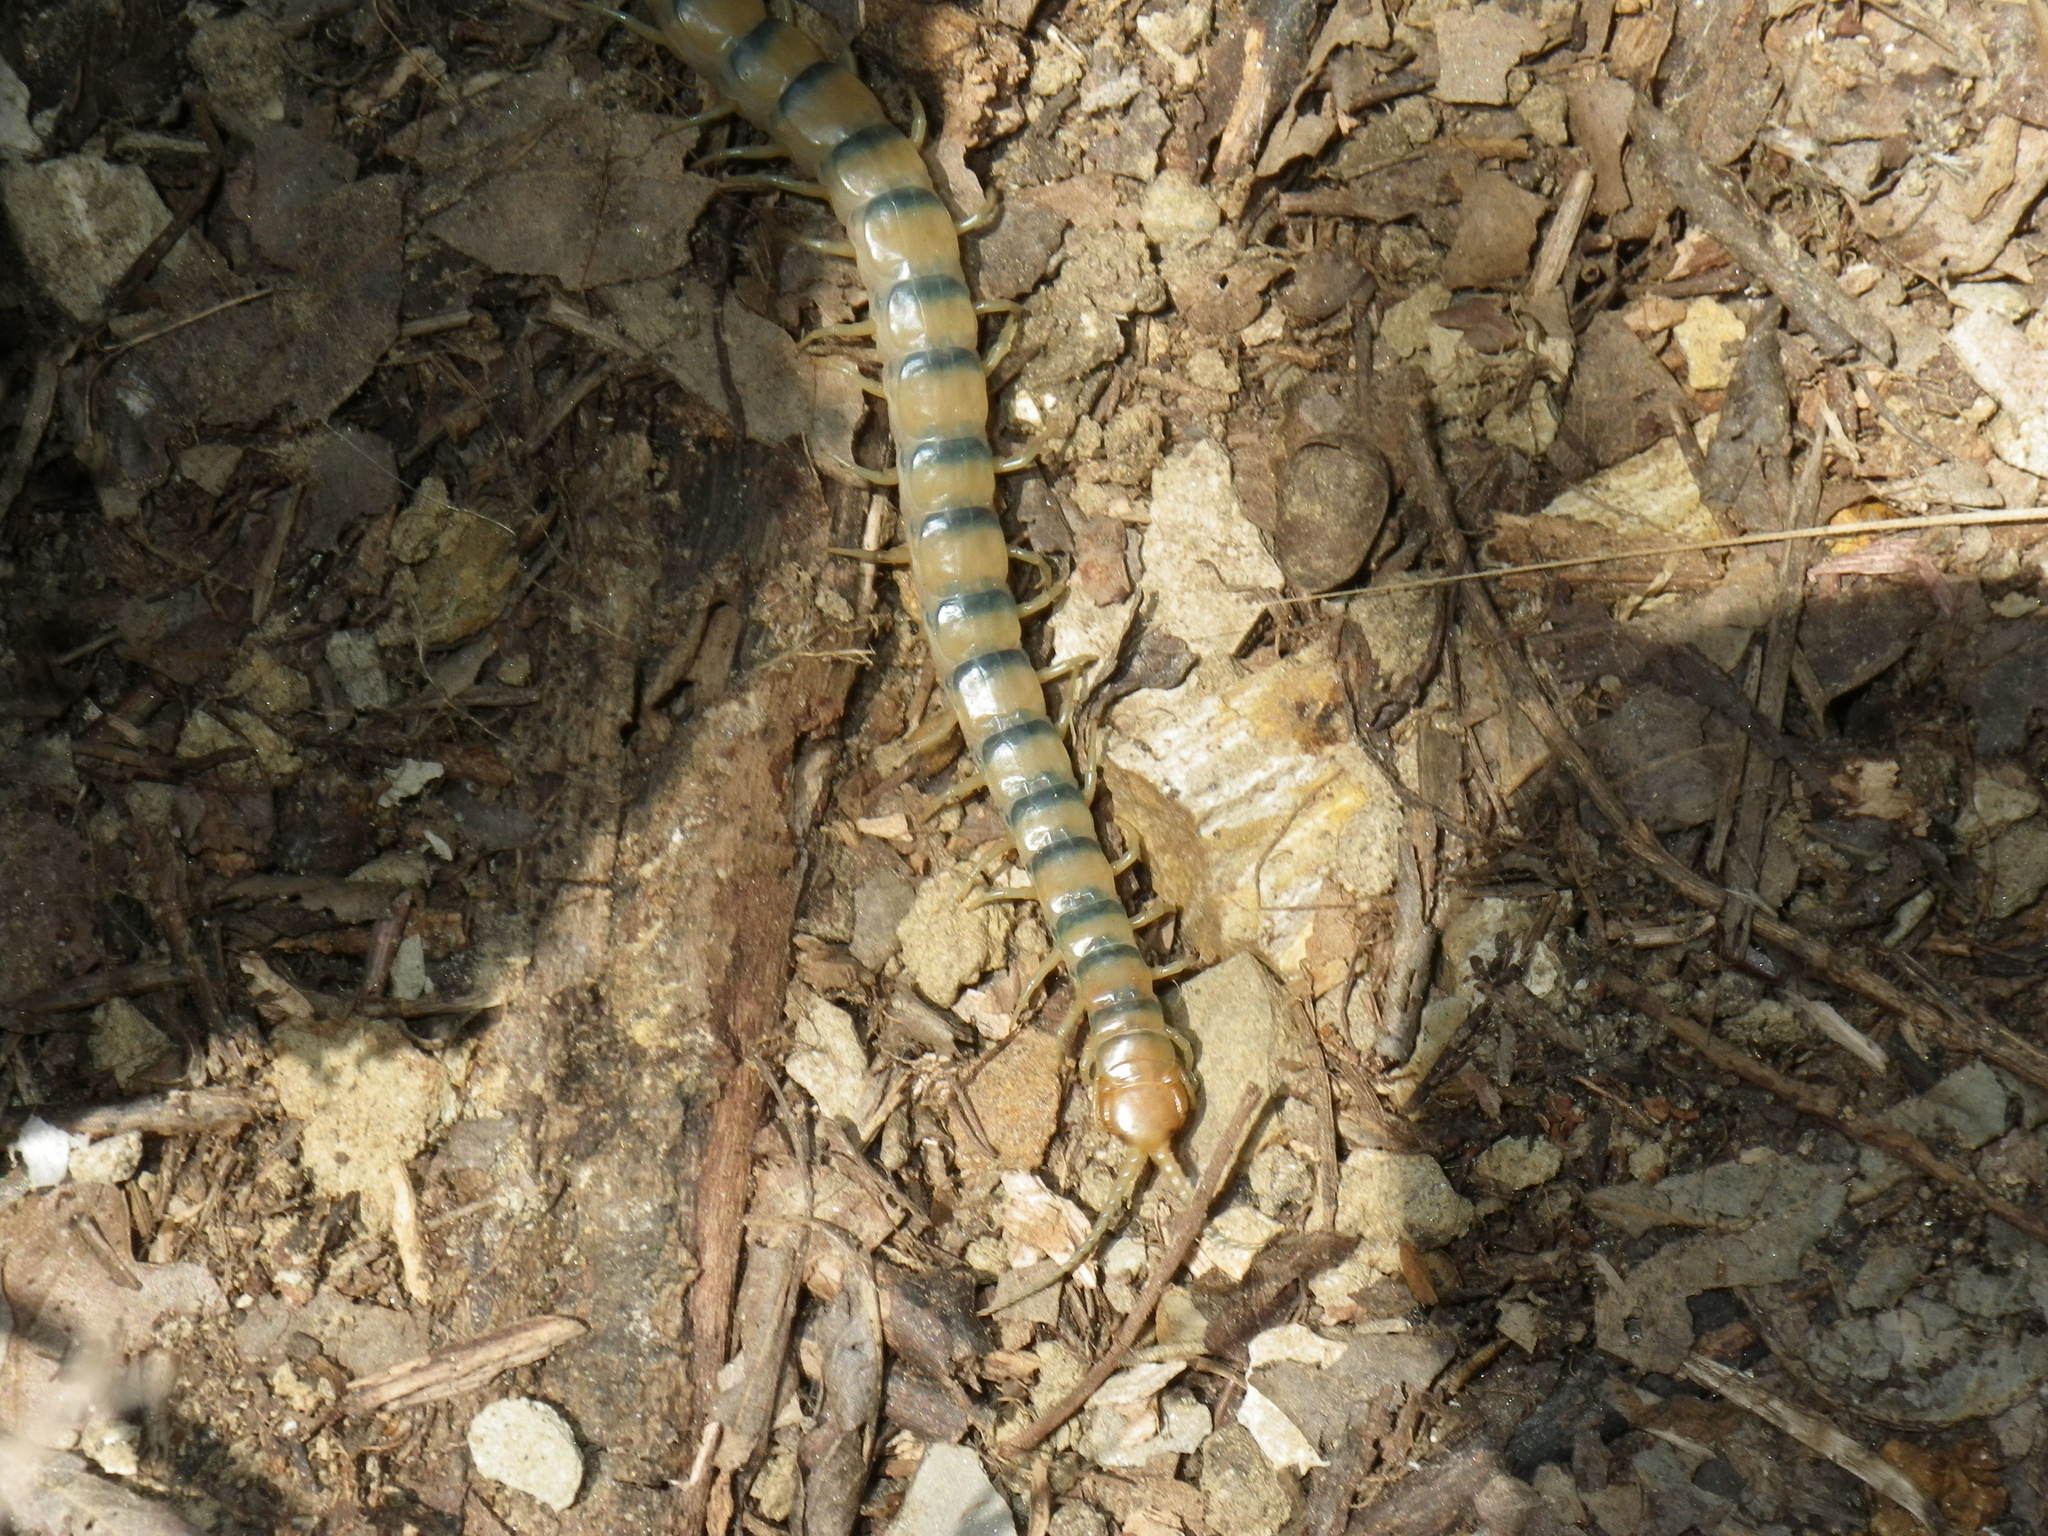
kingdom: Animalia
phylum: Arthropoda
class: Chilopoda
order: Scolopendromorpha
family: Scolopendridae
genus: Scolopendra
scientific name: Scolopendra polymorpha
